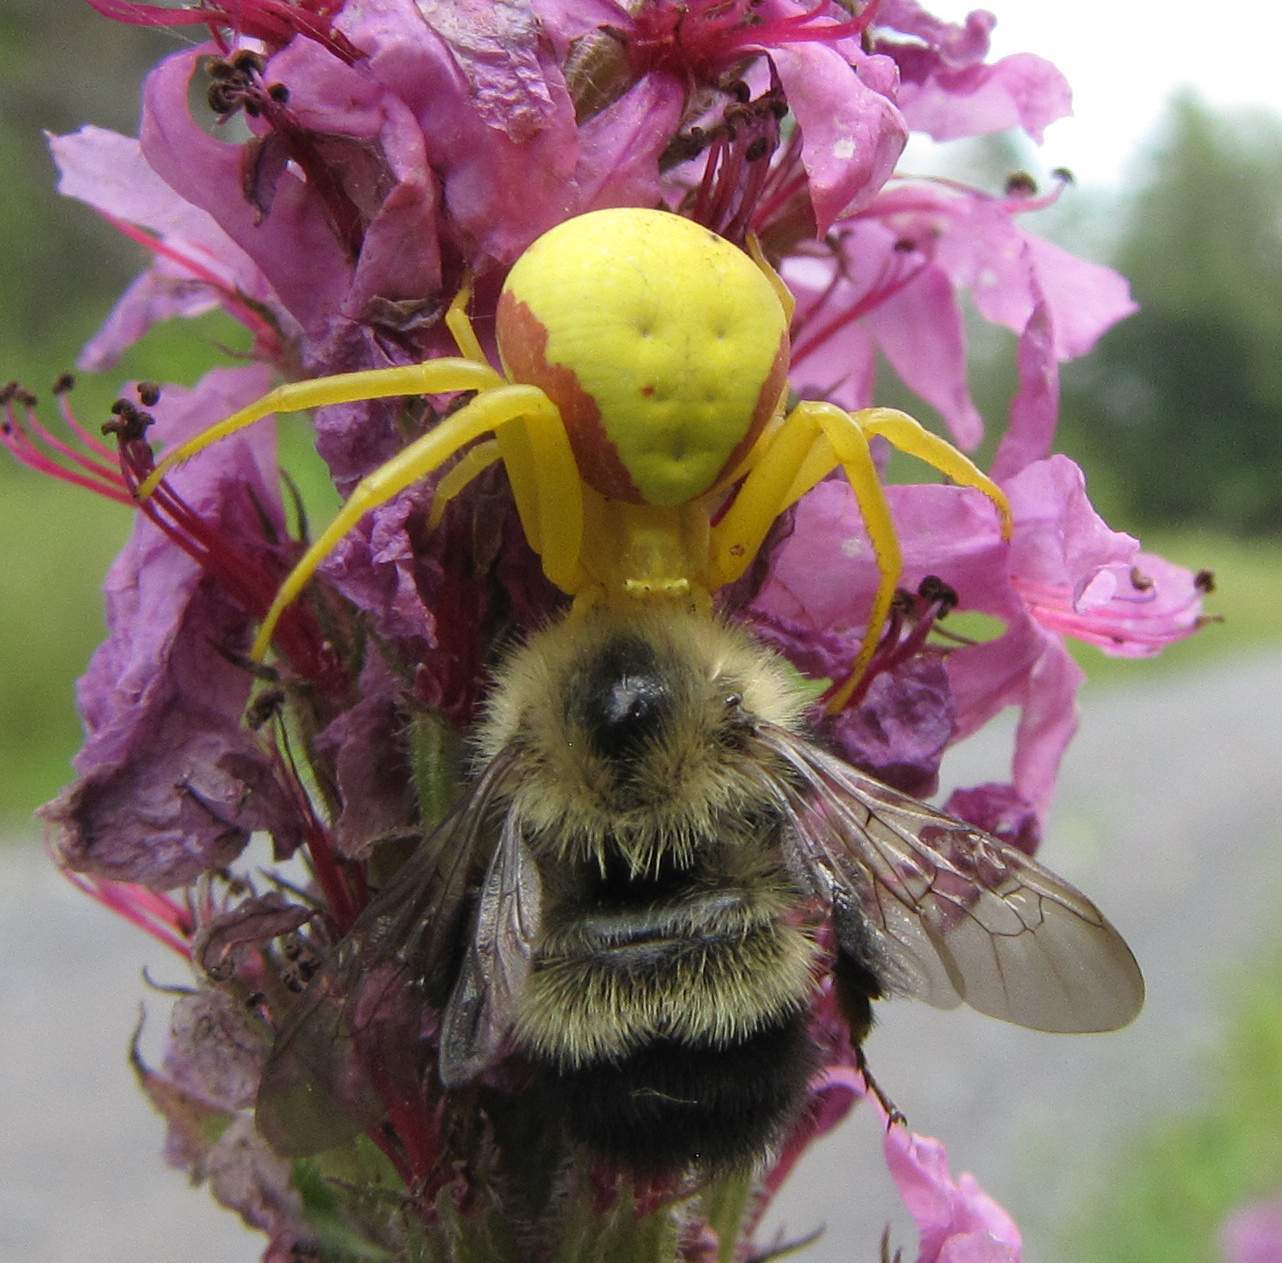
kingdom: Animalia
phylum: Arthropoda
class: Arachnida
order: Araneae
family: Thomisidae
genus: Misumena
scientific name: Misumena vatia
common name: Goldenrod crab spider
